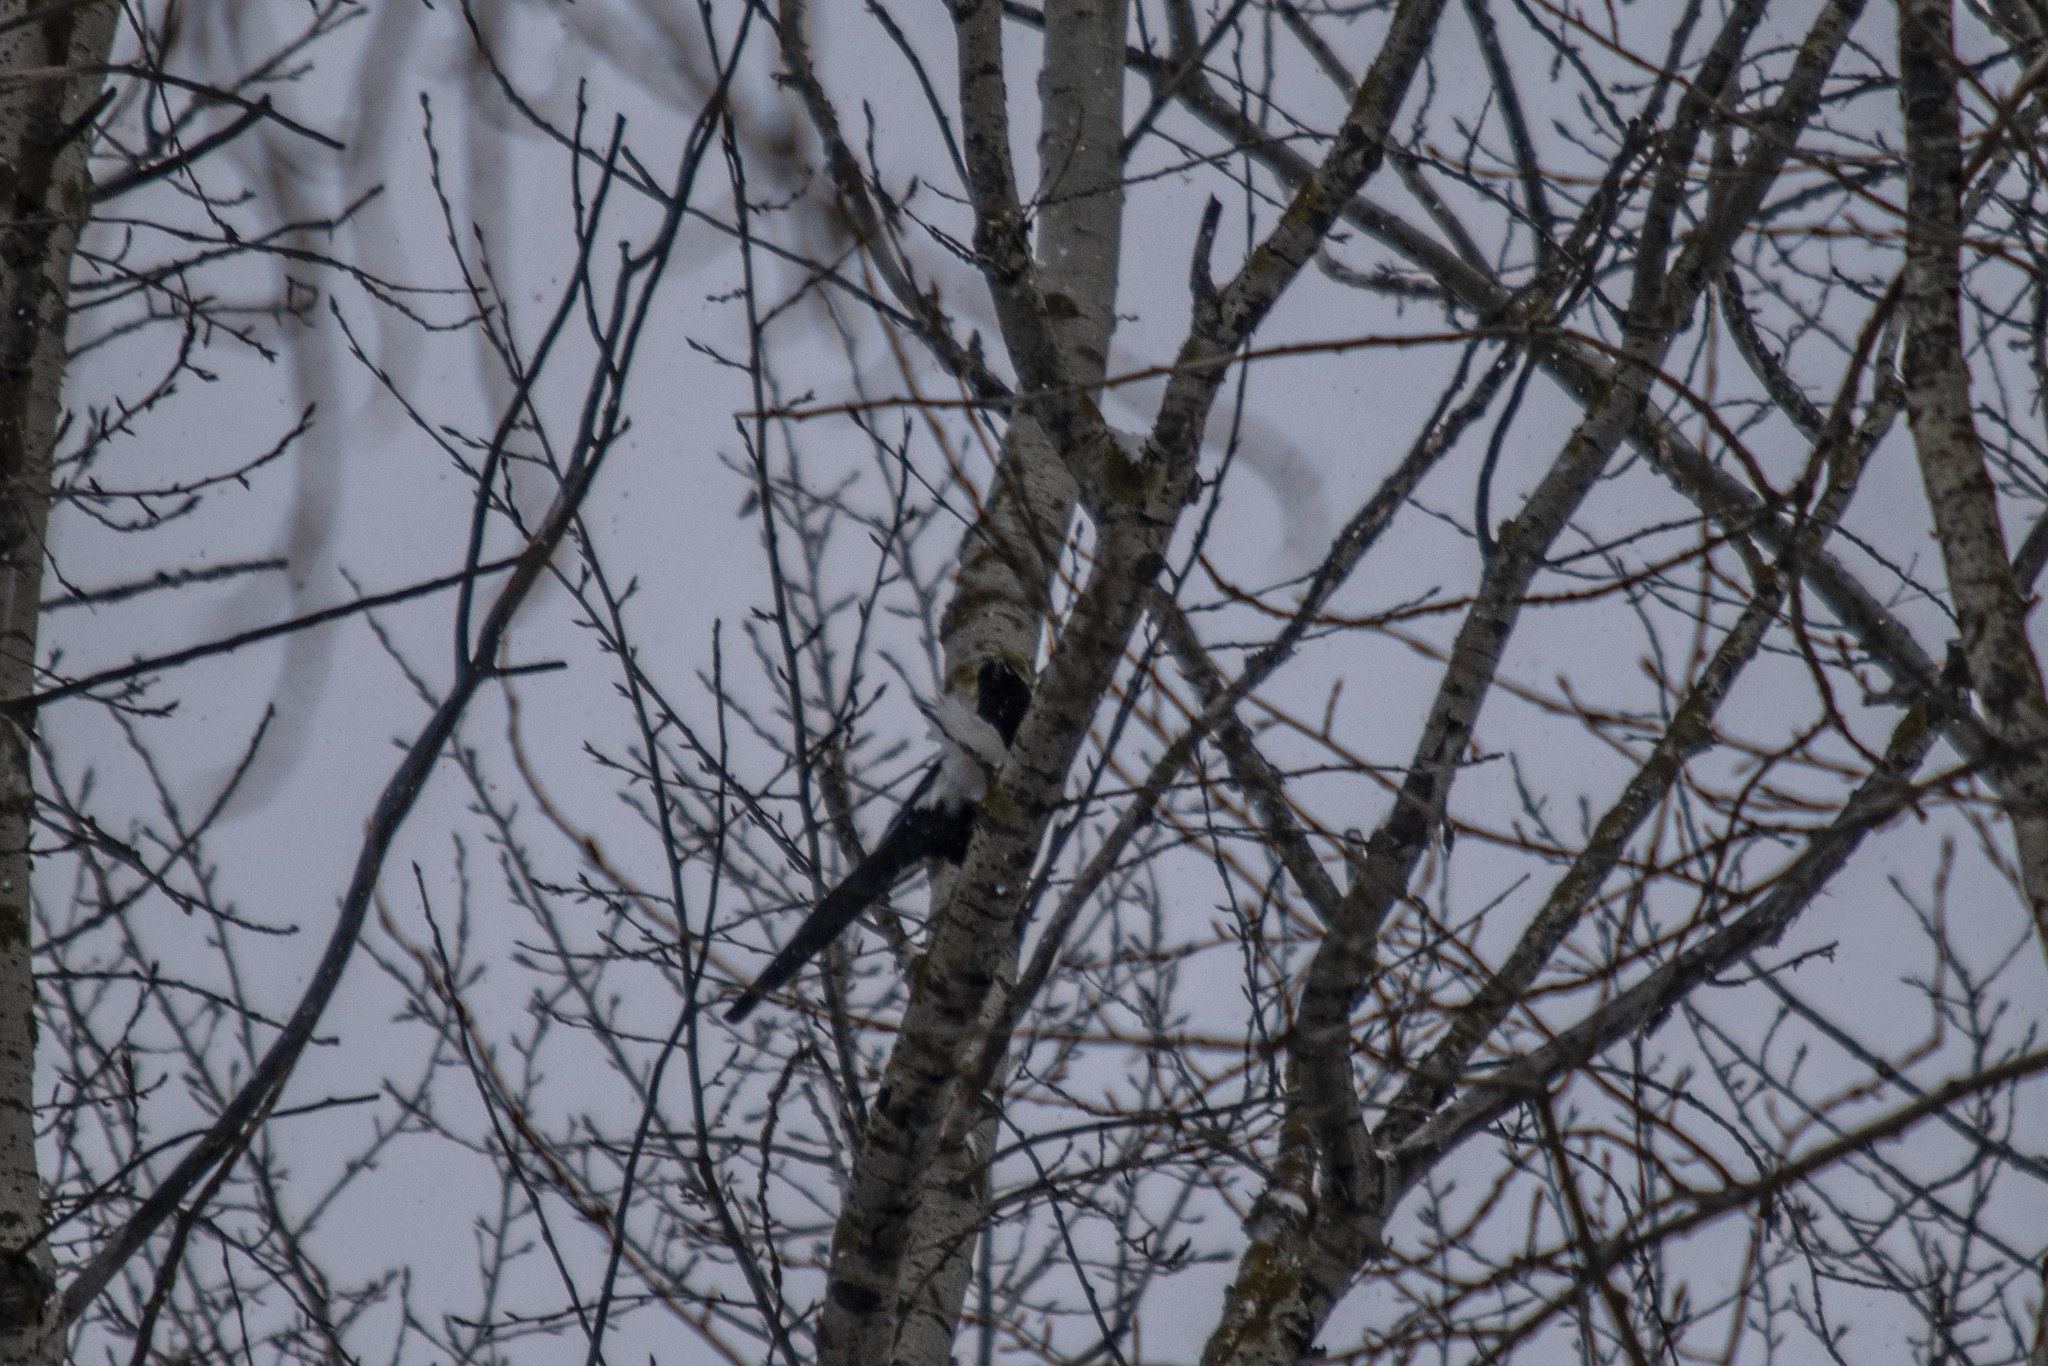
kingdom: Animalia
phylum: Chordata
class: Aves
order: Passeriformes
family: Corvidae
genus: Pica
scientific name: Pica pica
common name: Eurasian magpie
